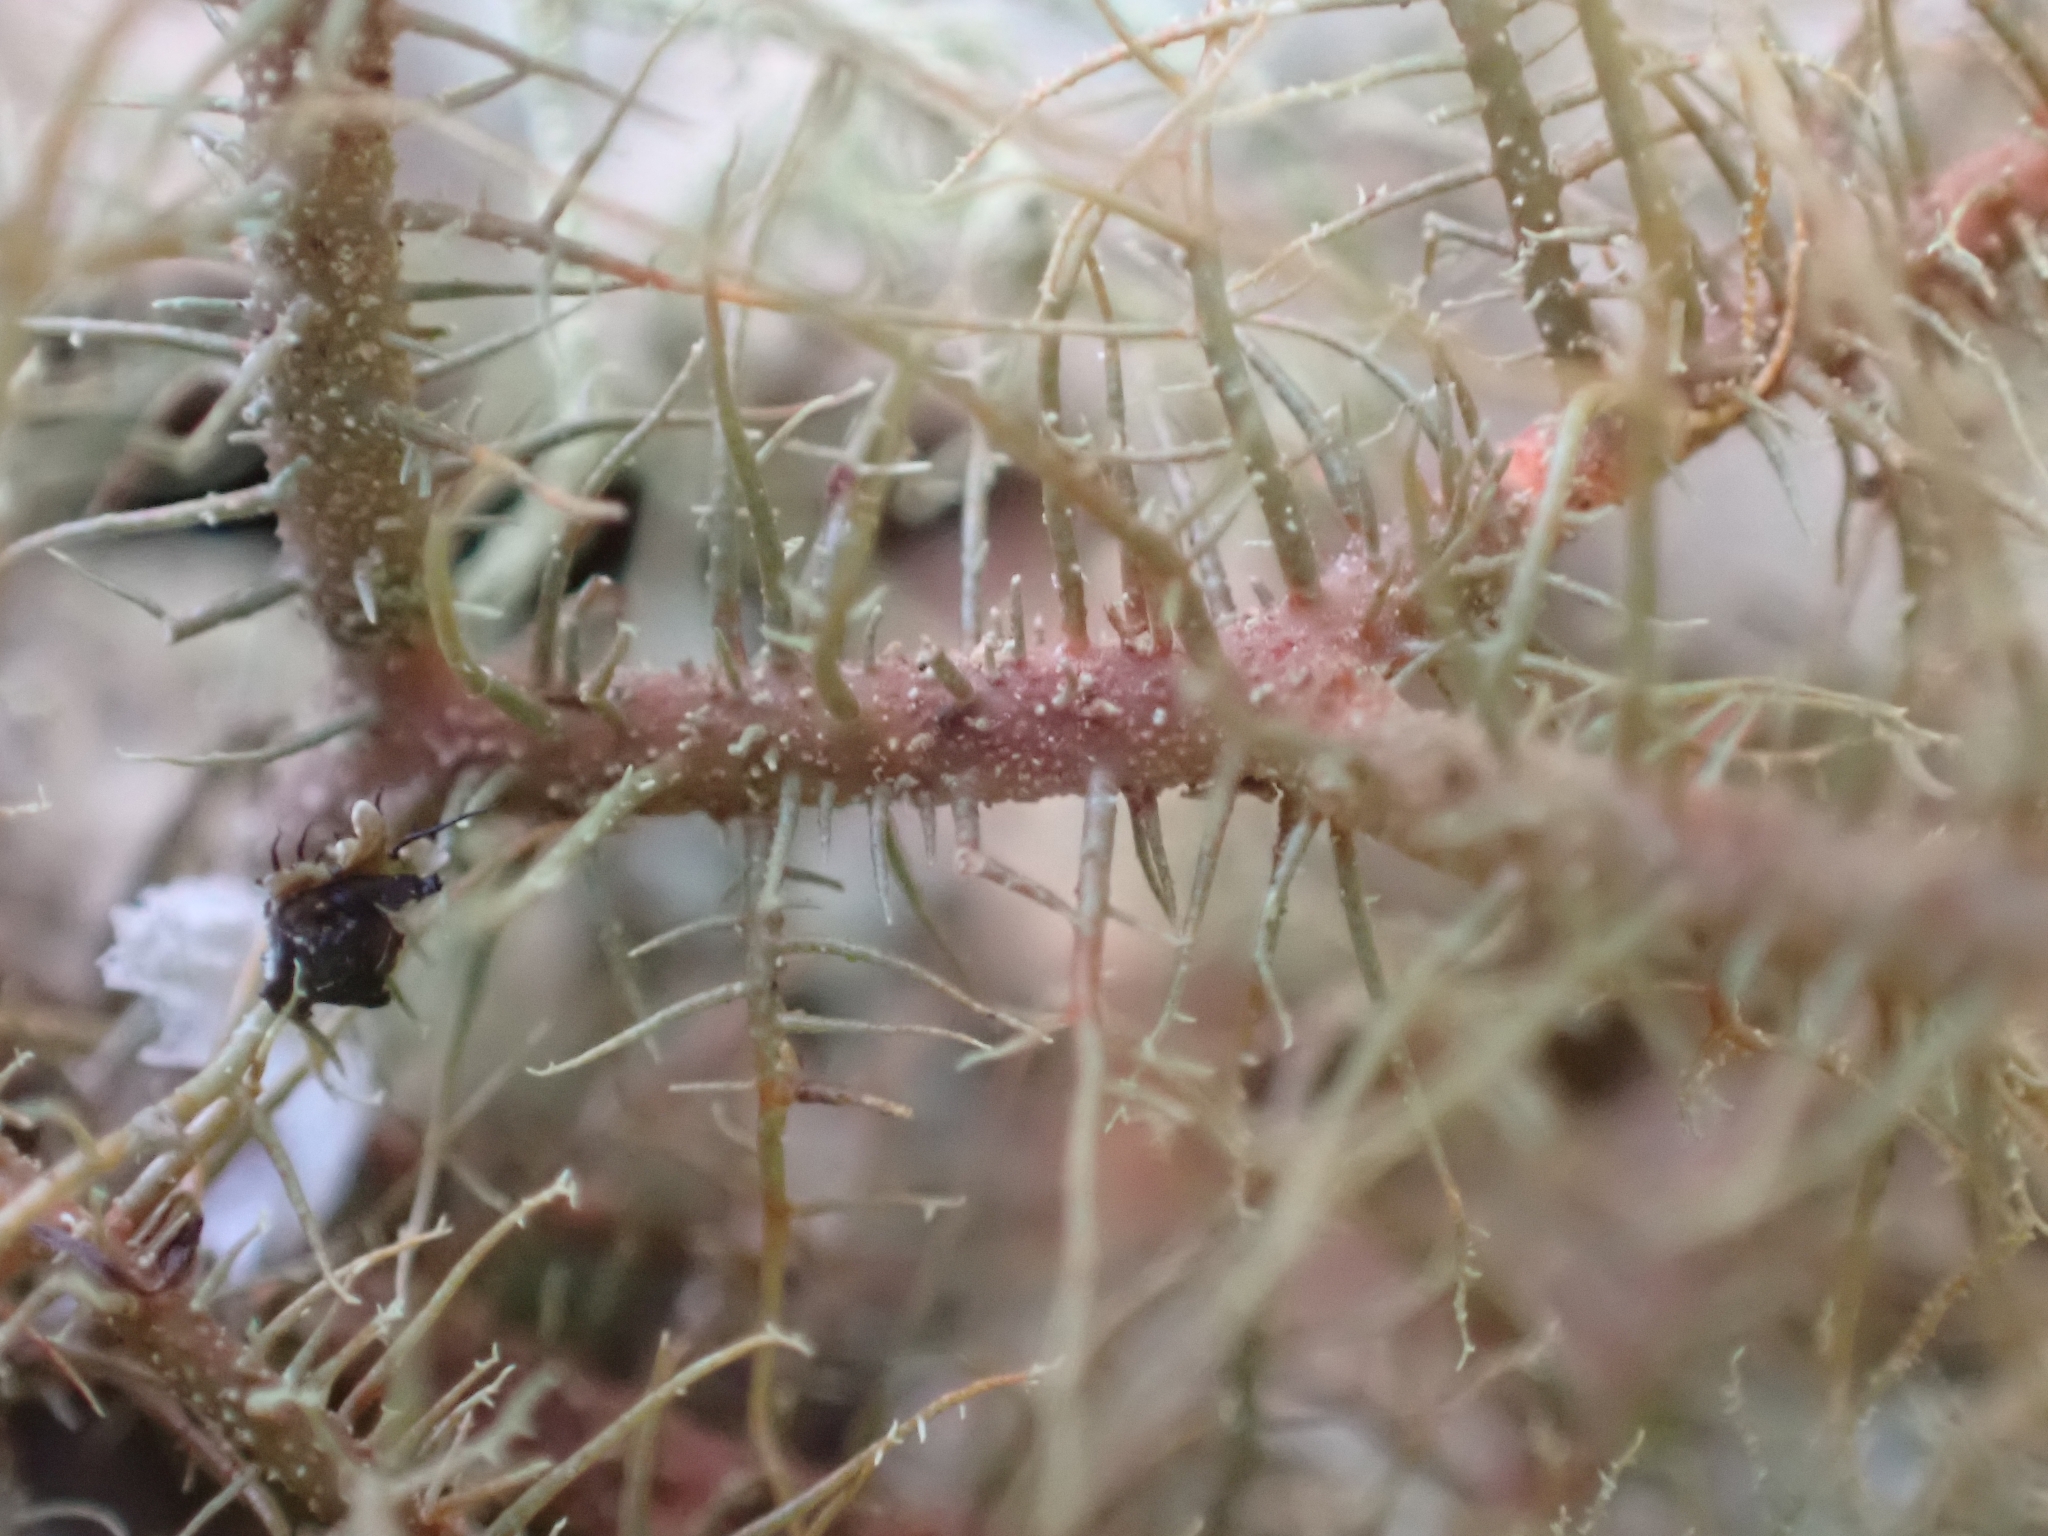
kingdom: Fungi
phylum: Ascomycota
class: Lecanoromycetes
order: Lecanorales
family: Parmeliaceae
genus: Usnea
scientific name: Usnea rubicunda
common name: Red beard lichen
